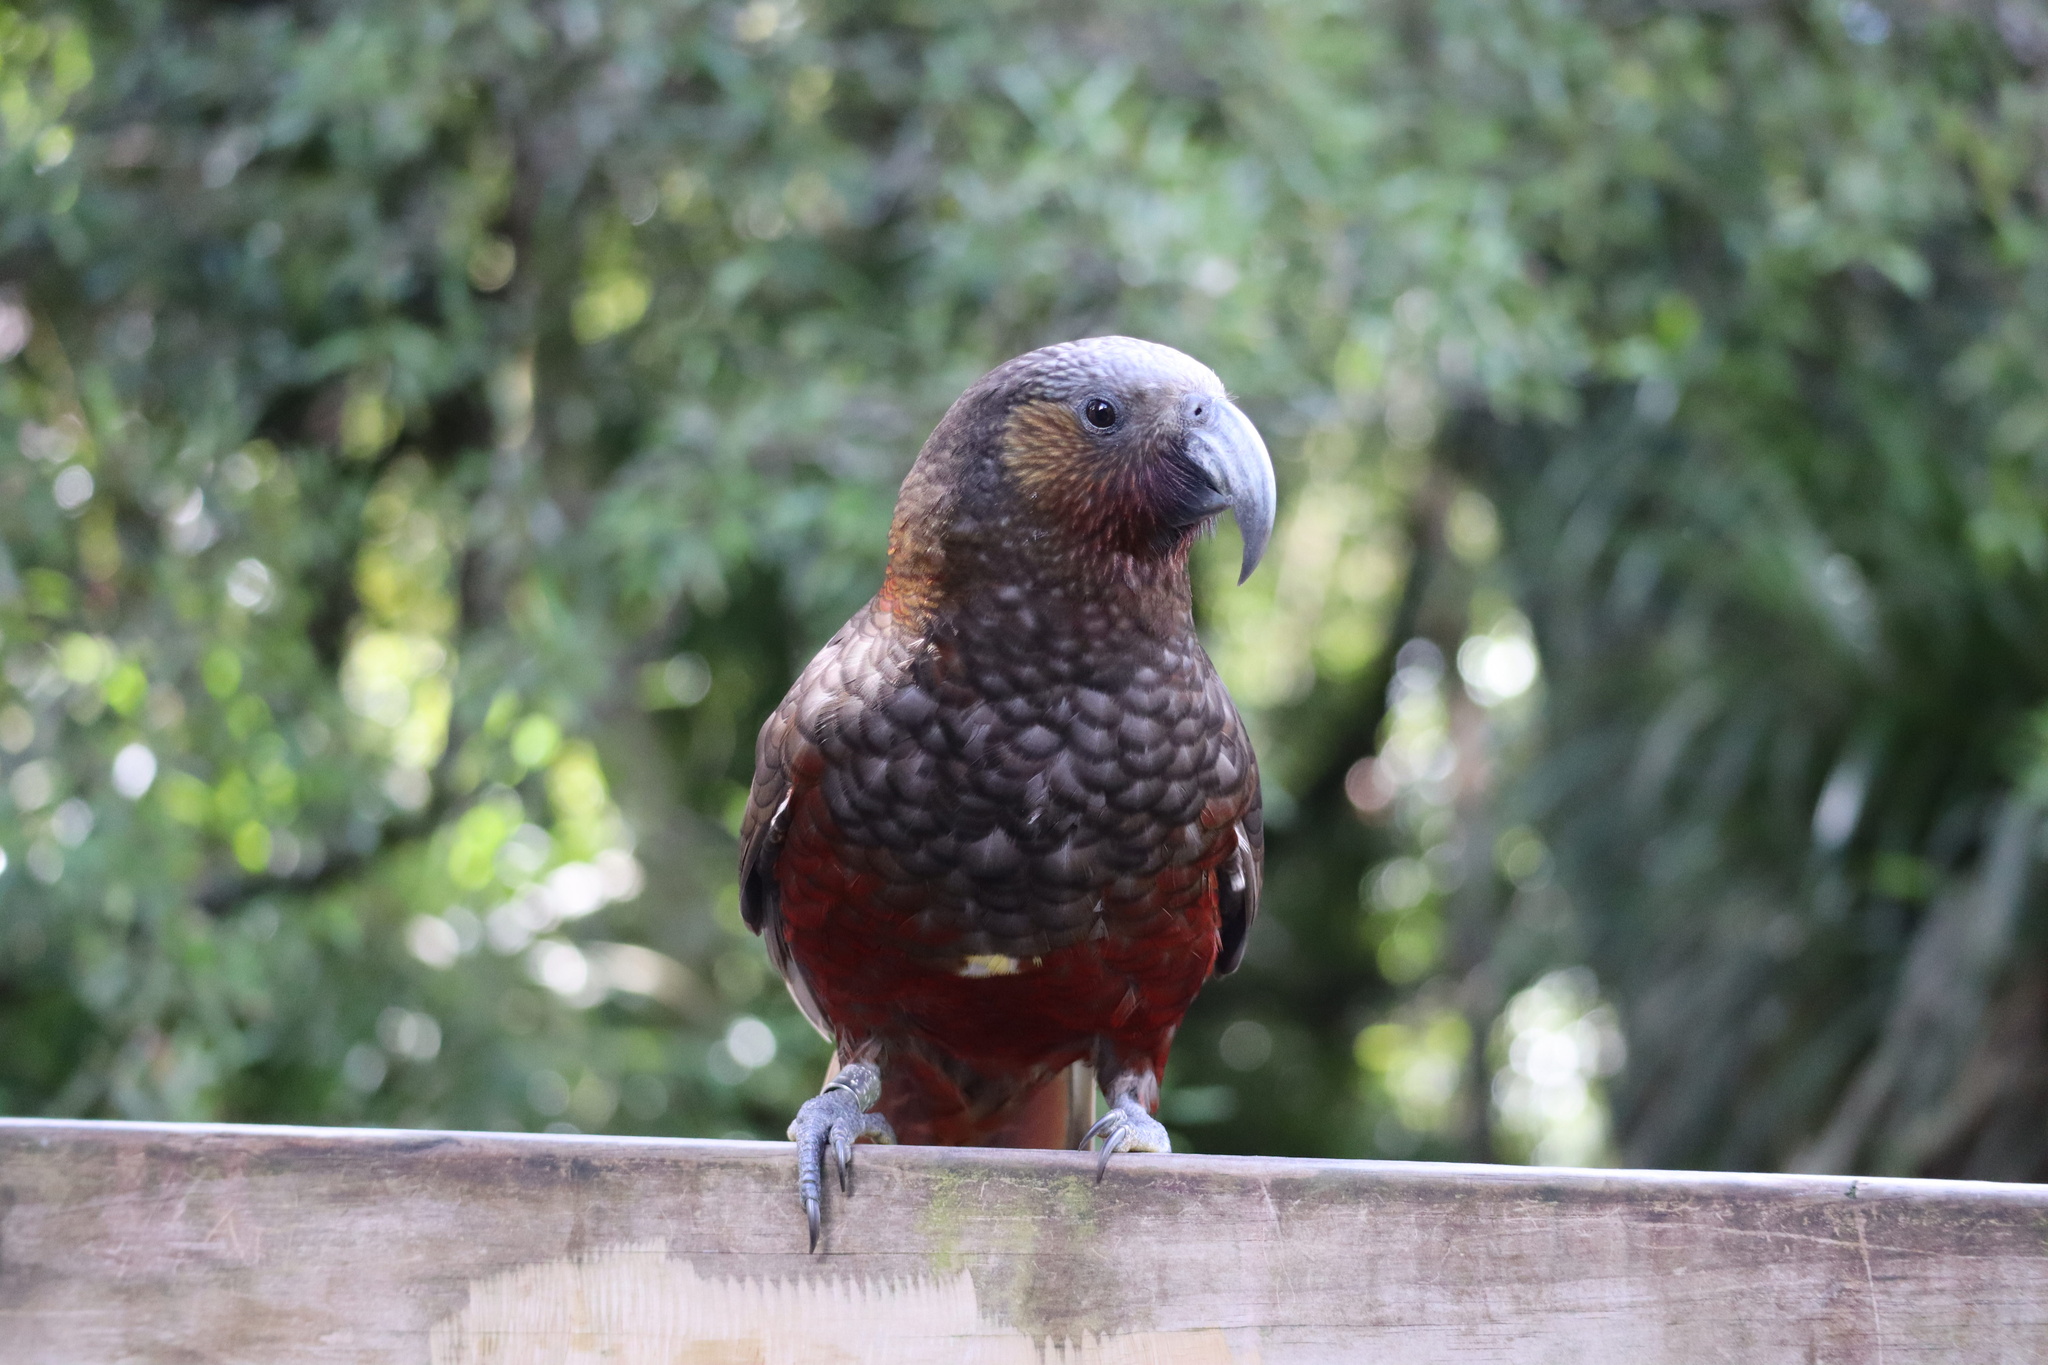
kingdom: Animalia
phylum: Chordata
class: Aves
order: Psittaciformes
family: Psittacidae
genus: Nestor
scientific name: Nestor meridionalis
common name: New zealand kaka
